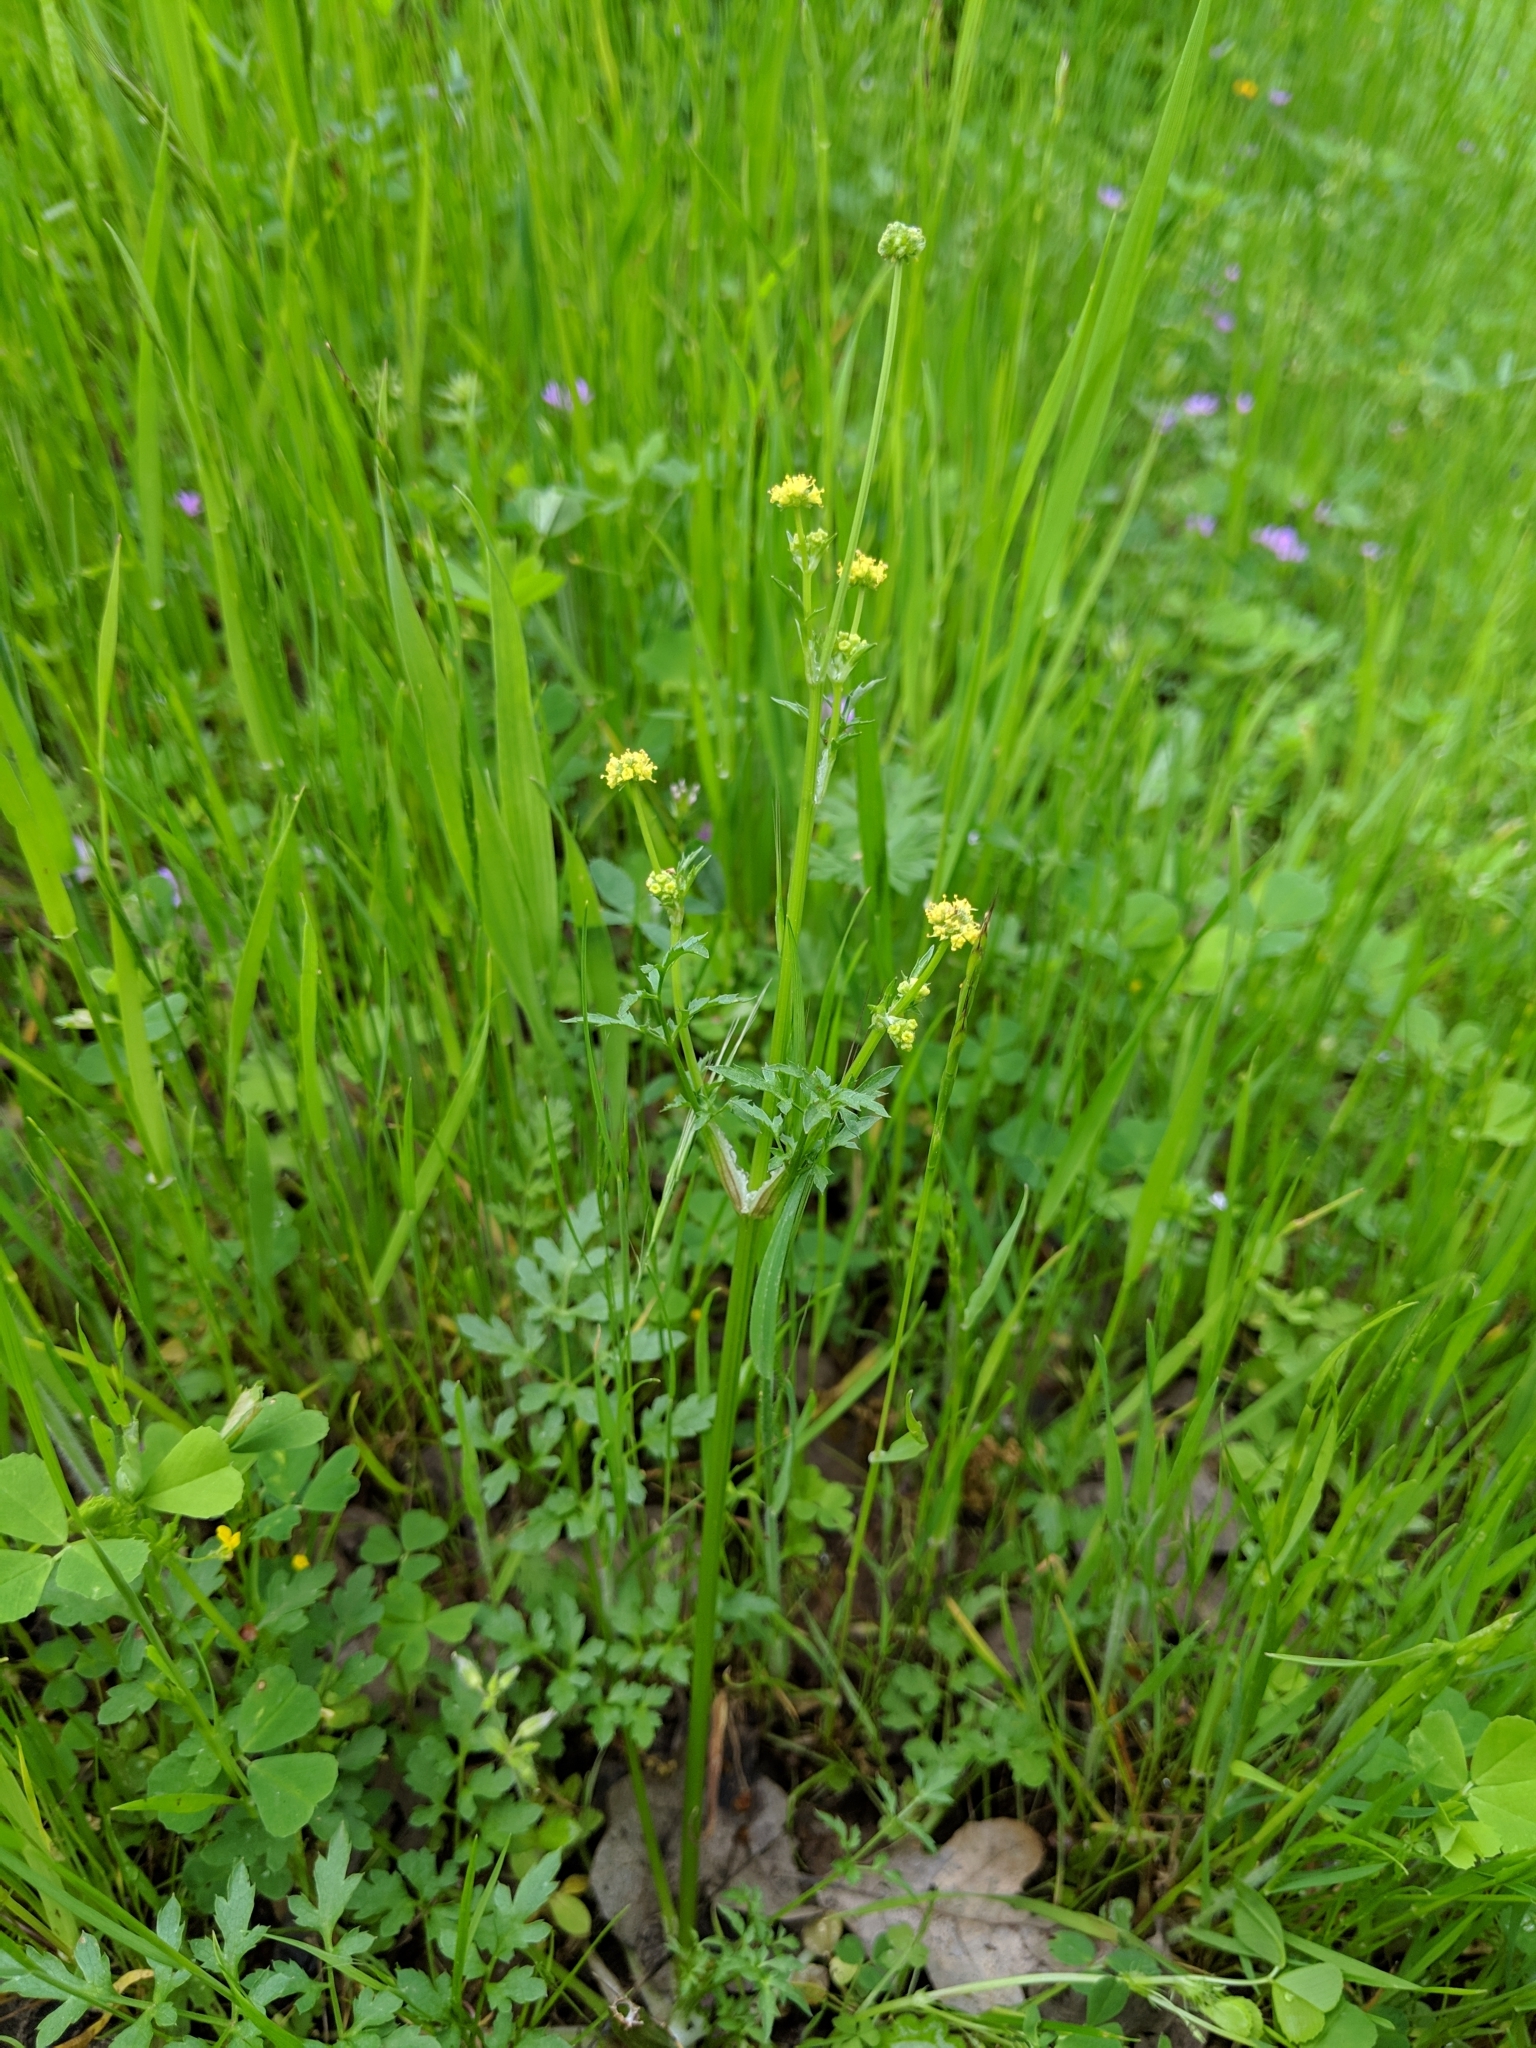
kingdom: Plantae
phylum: Tracheophyta
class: Magnoliopsida
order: Apiales
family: Apiaceae
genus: Sanicula
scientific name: Sanicula bipinnata
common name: Poison sanicle
